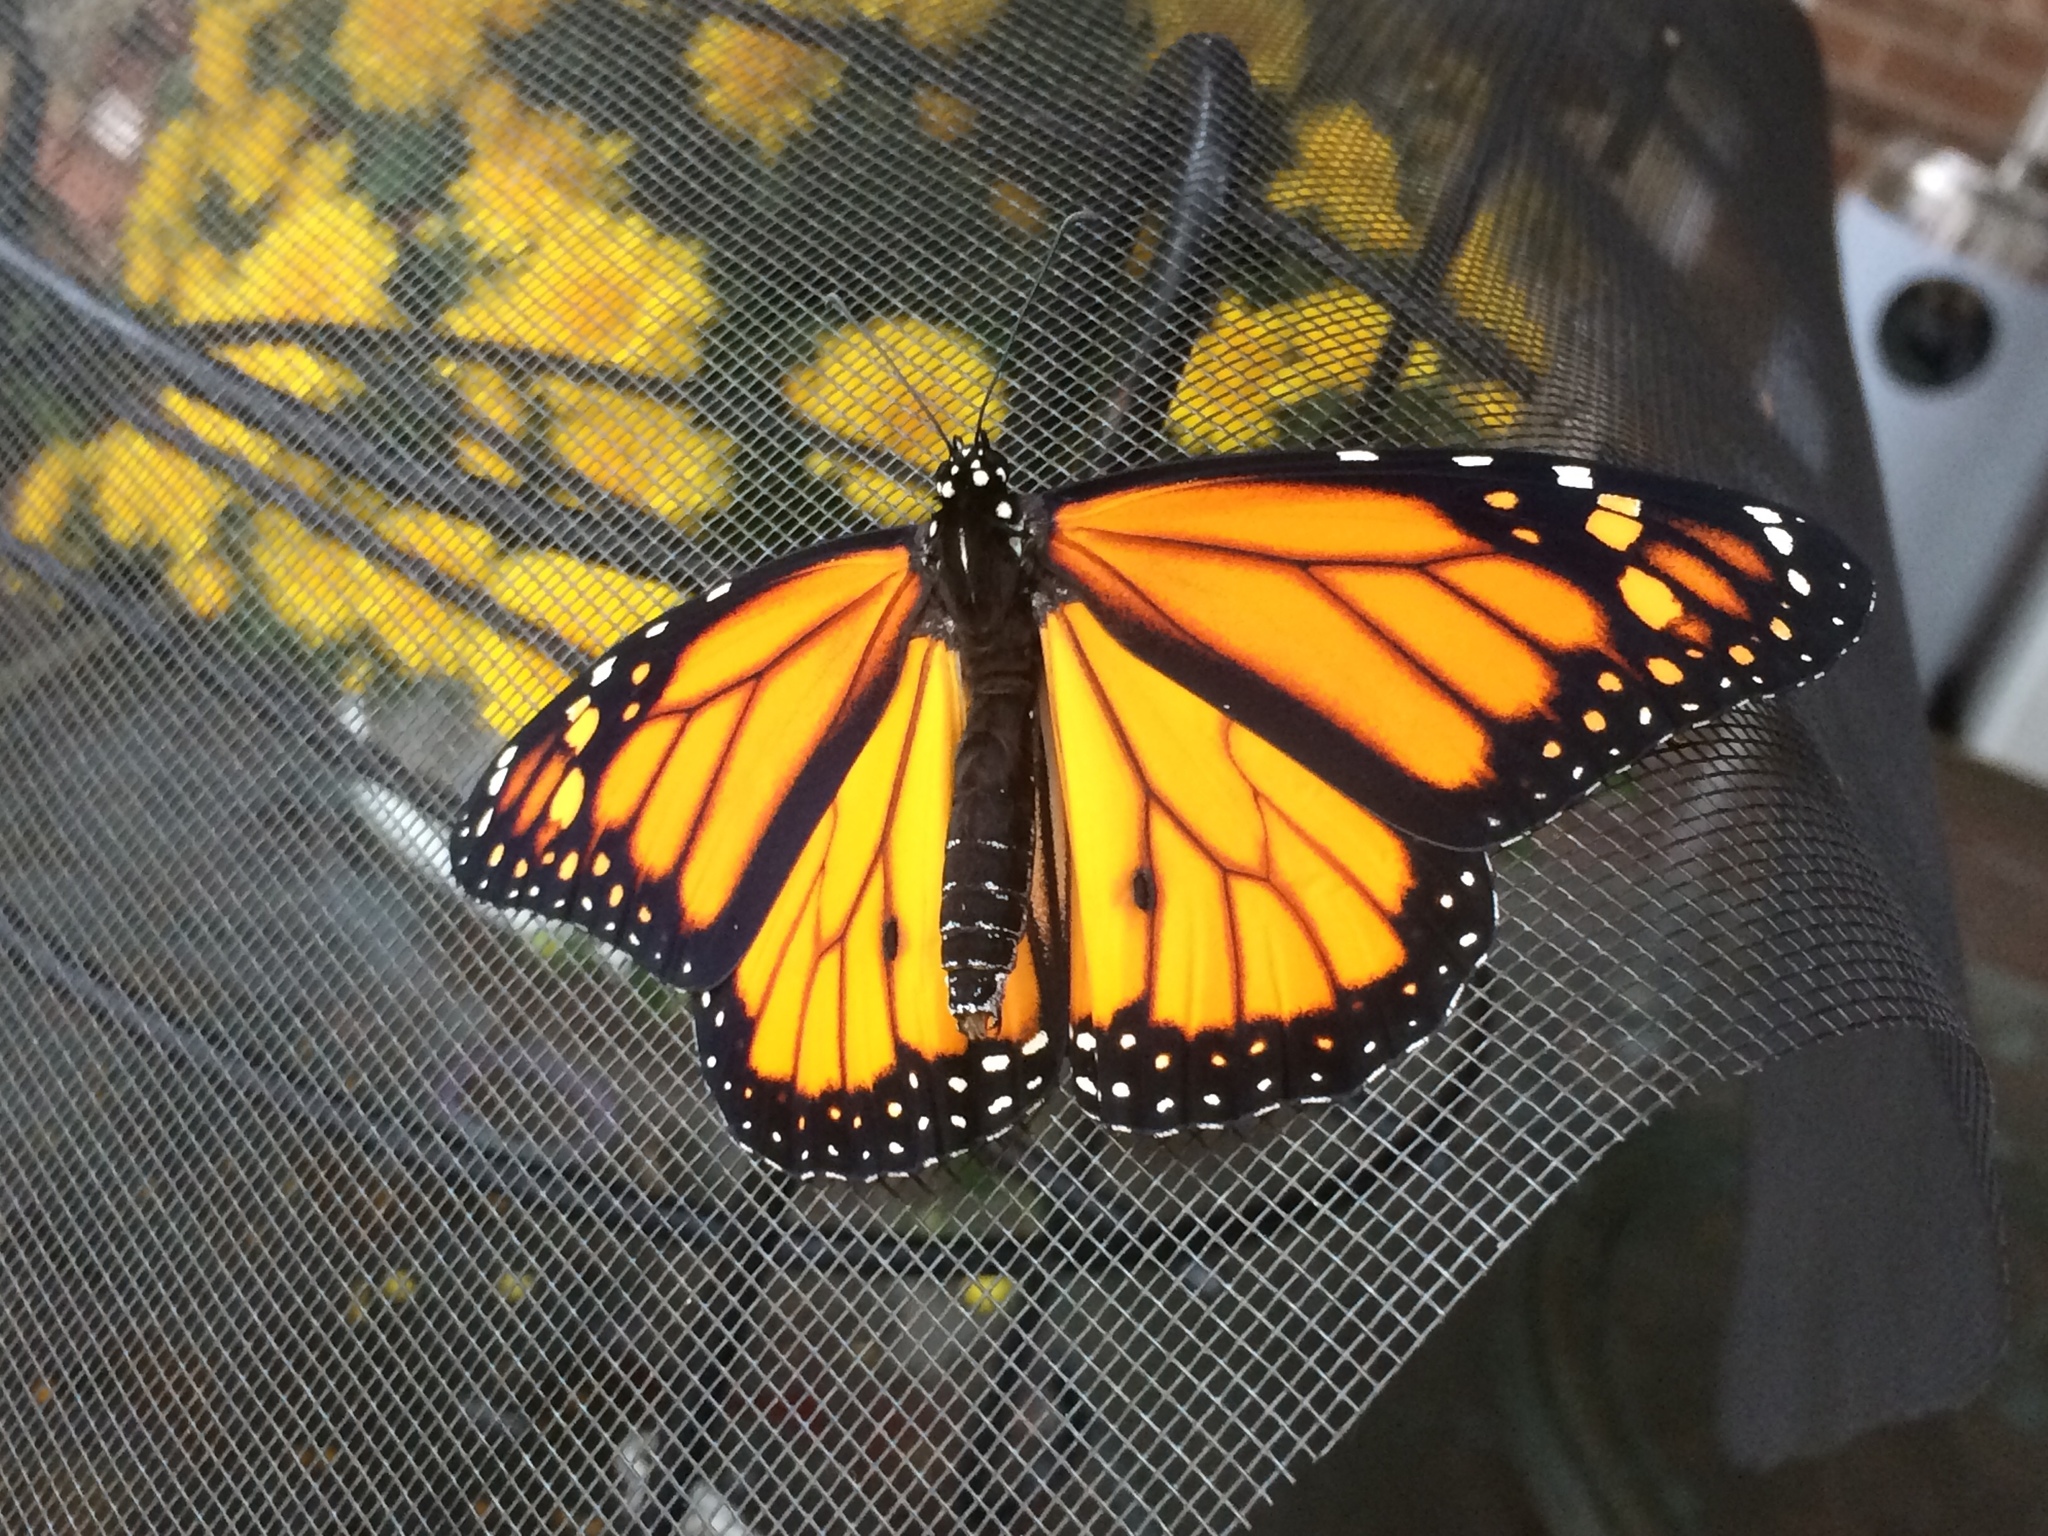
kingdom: Animalia
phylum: Arthropoda
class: Insecta
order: Lepidoptera
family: Nymphalidae
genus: Danaus
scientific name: Danaus plexippus
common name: Monarch
